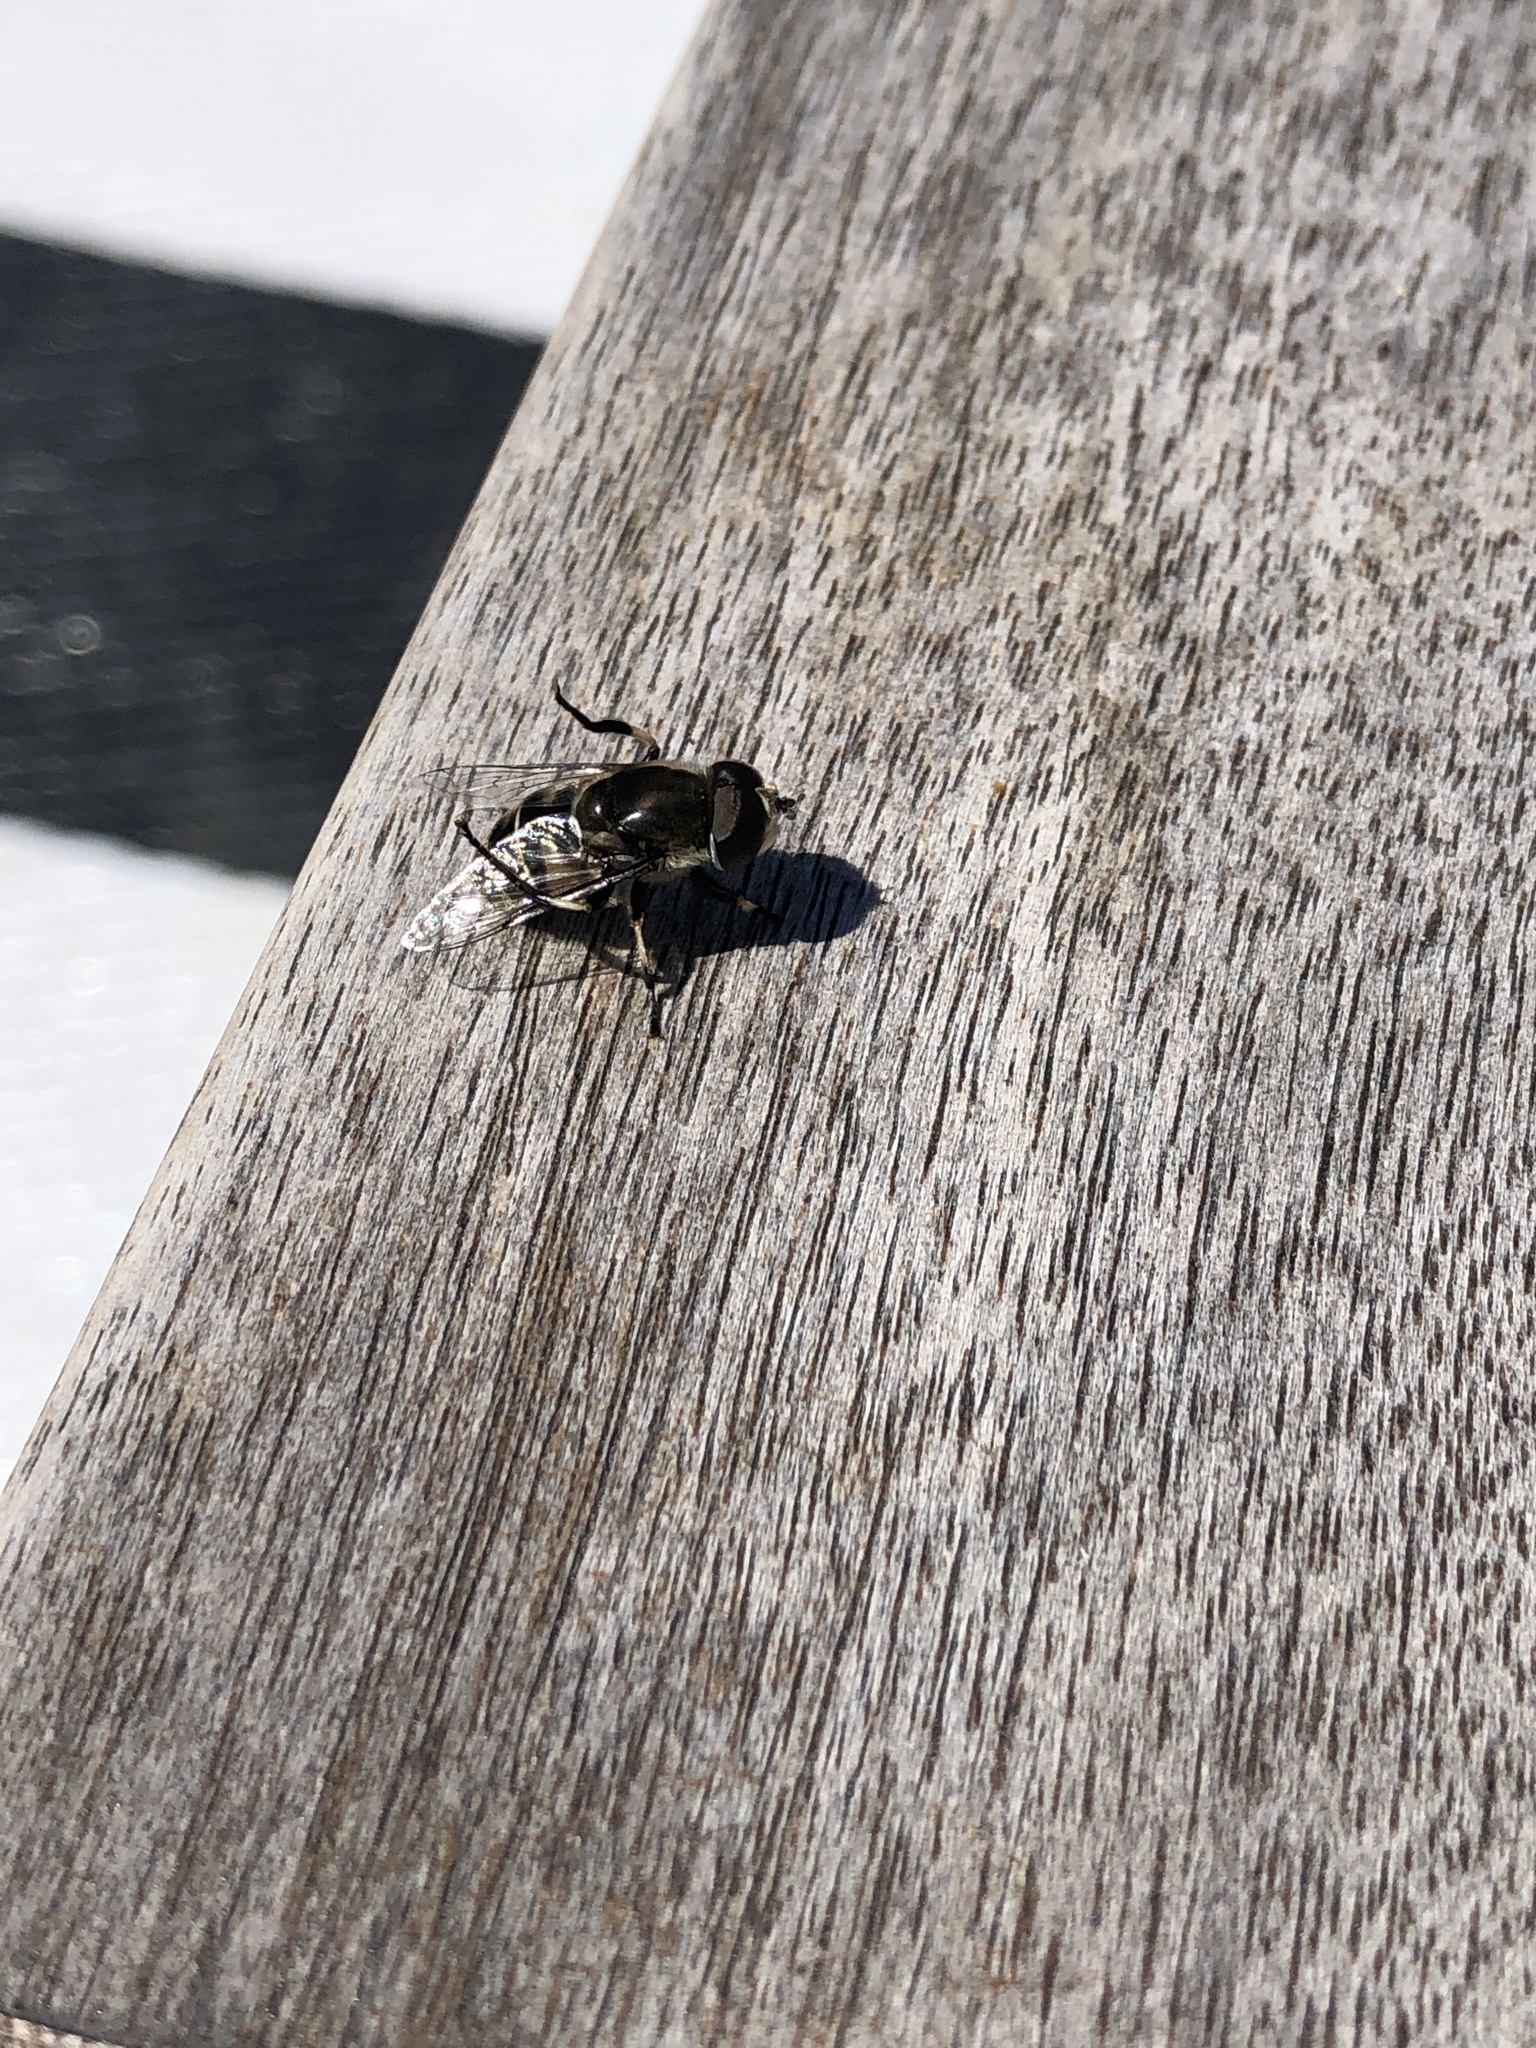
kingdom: Animalia
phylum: Arthropoda
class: Insecta
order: Diptera
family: Syrphidae
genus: Eristalis
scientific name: Eristalis dimidiata
